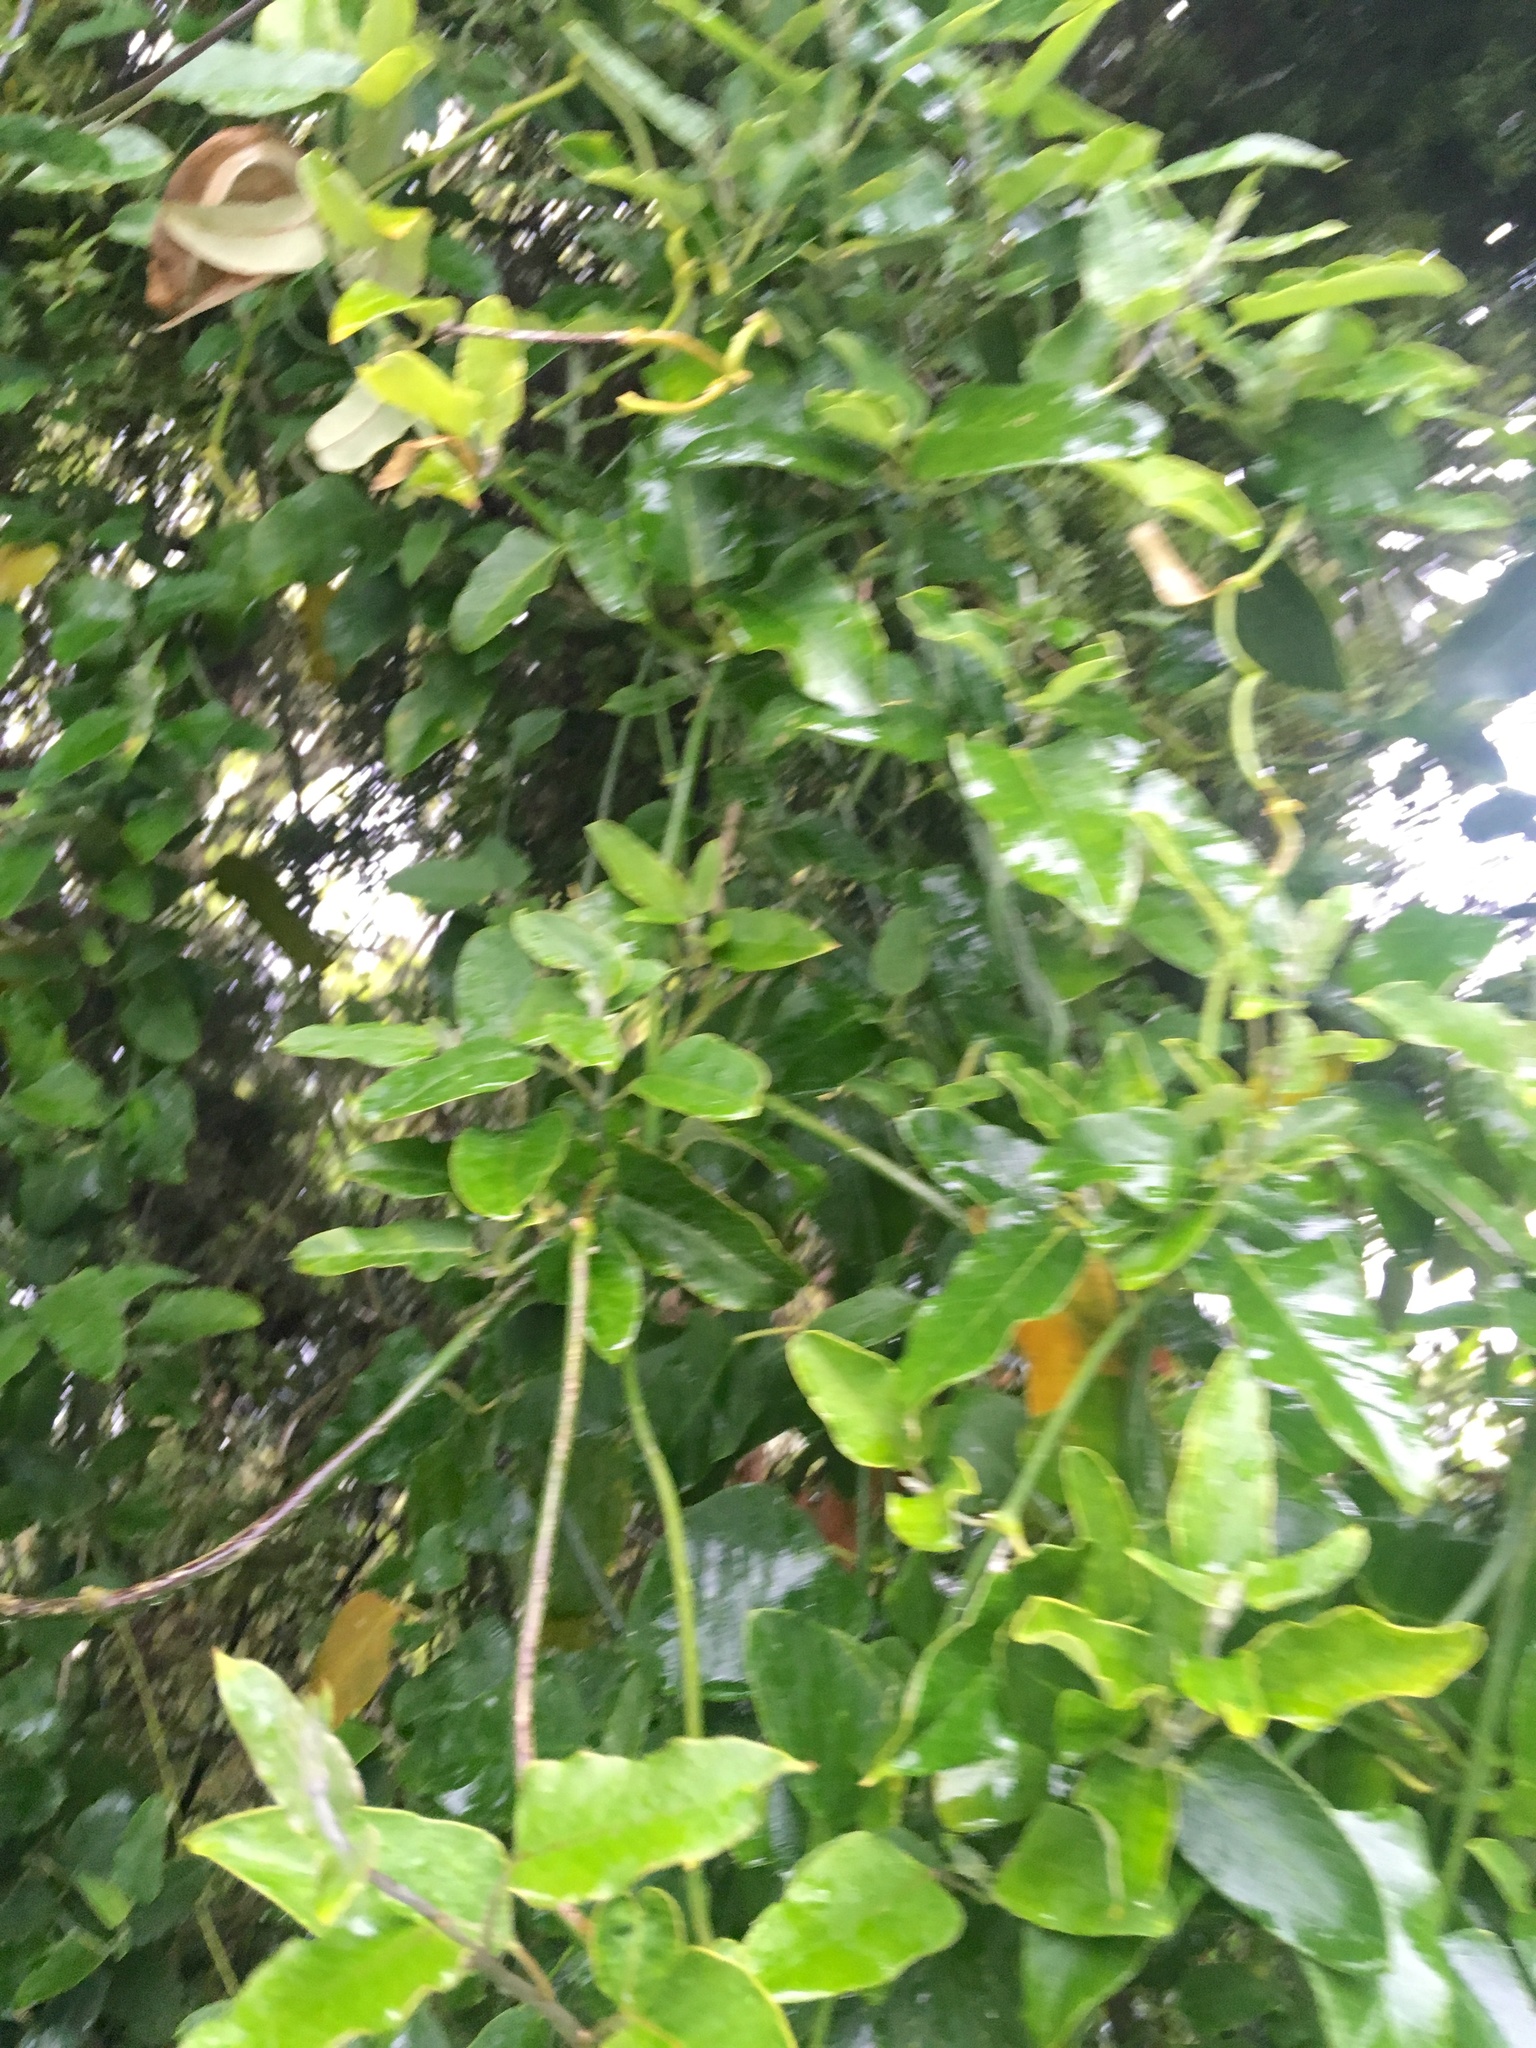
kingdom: Plantae
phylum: Tracheophyta
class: Magnoliopsida
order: Gentianales
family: Apocynaceae
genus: Araujia
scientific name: Araujia sericifera
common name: White bladderflower
